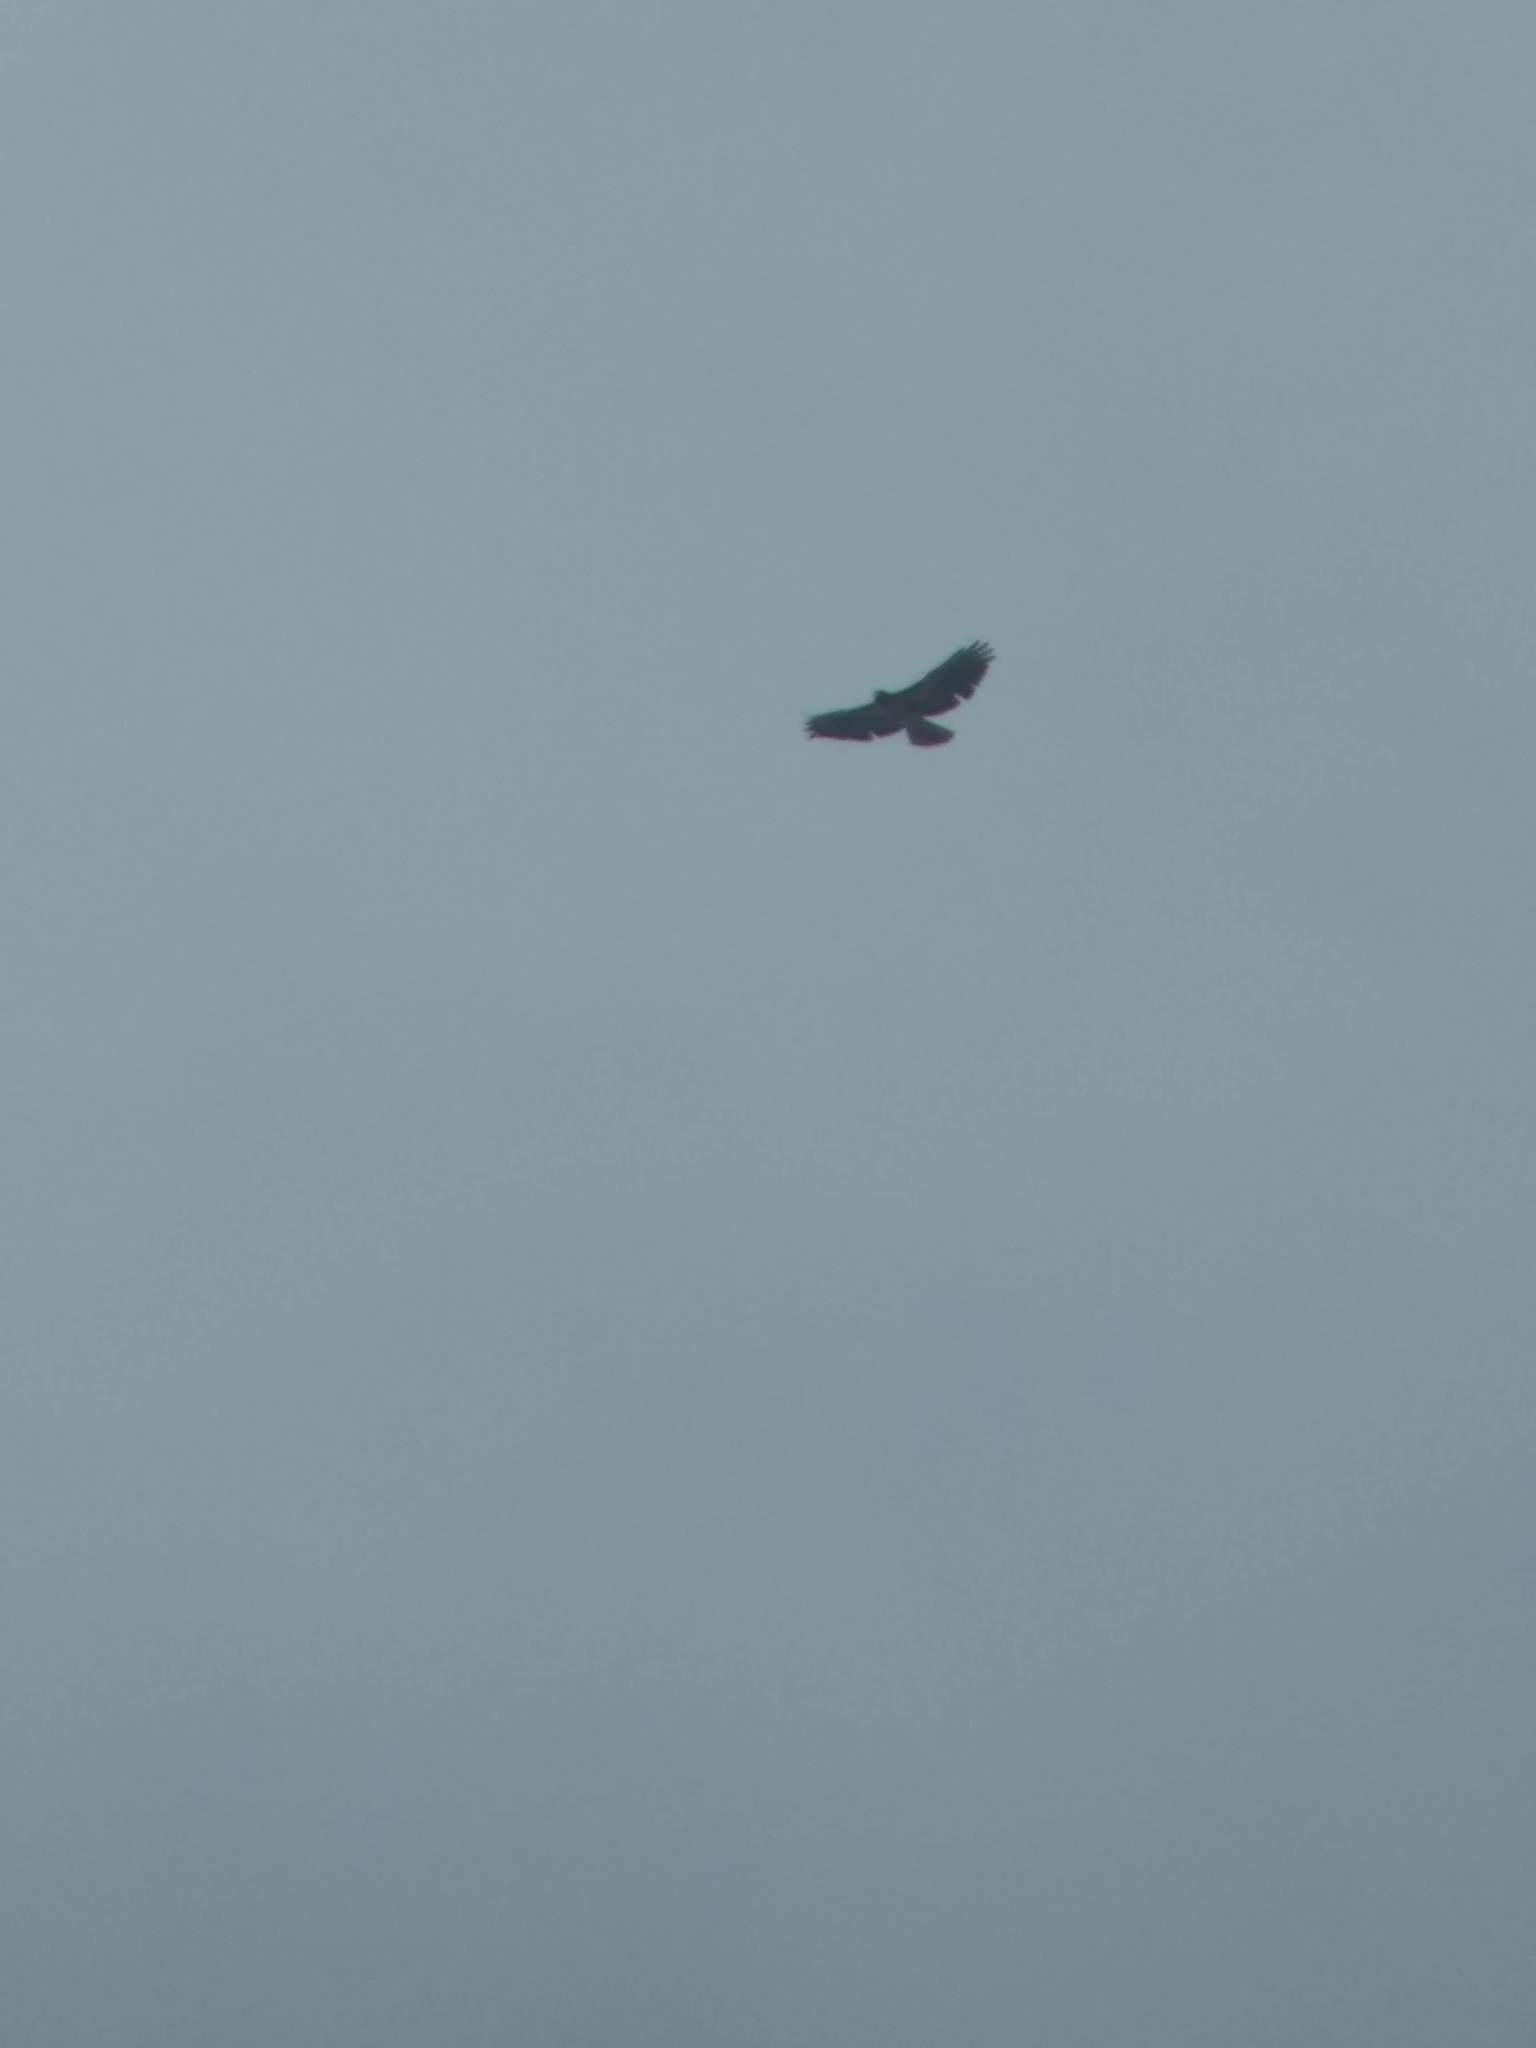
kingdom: Animalia
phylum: Chordata
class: Aves
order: Accipitriformes
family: Accipitridae
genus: Buteo
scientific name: Buteo jamaicensis
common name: Red-tailed hawk
